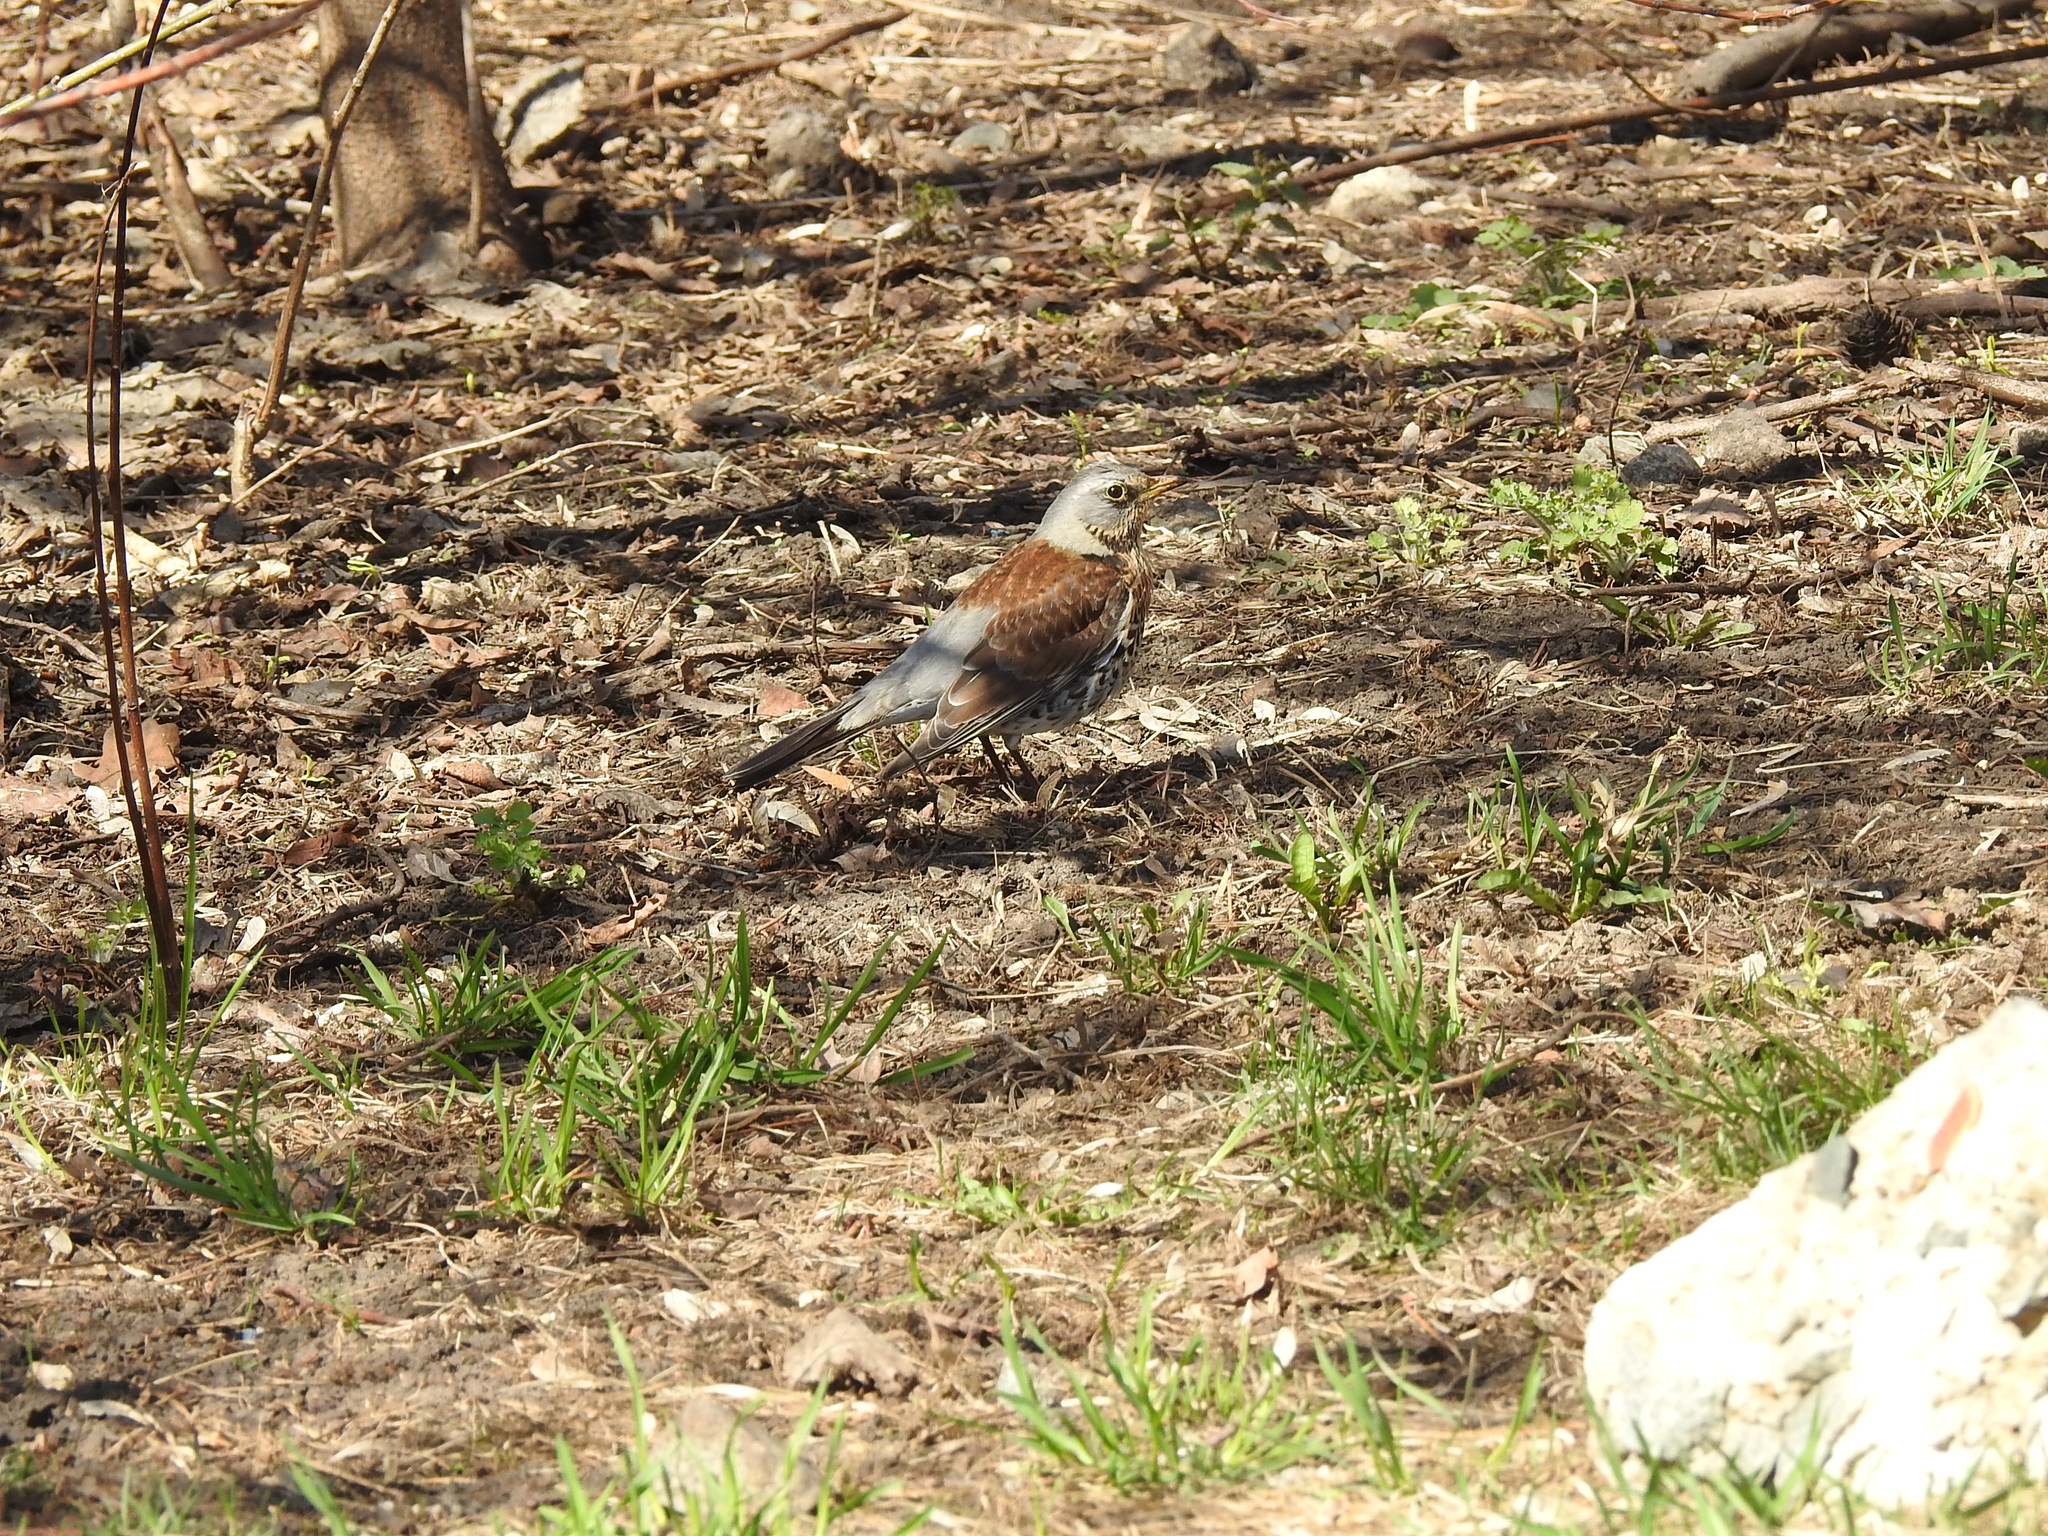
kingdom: Animalia
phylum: Chordata
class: Aves
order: Passeriformes
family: Turdidae
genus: Turdus
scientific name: Turdus pilaris
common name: Fieldfare
